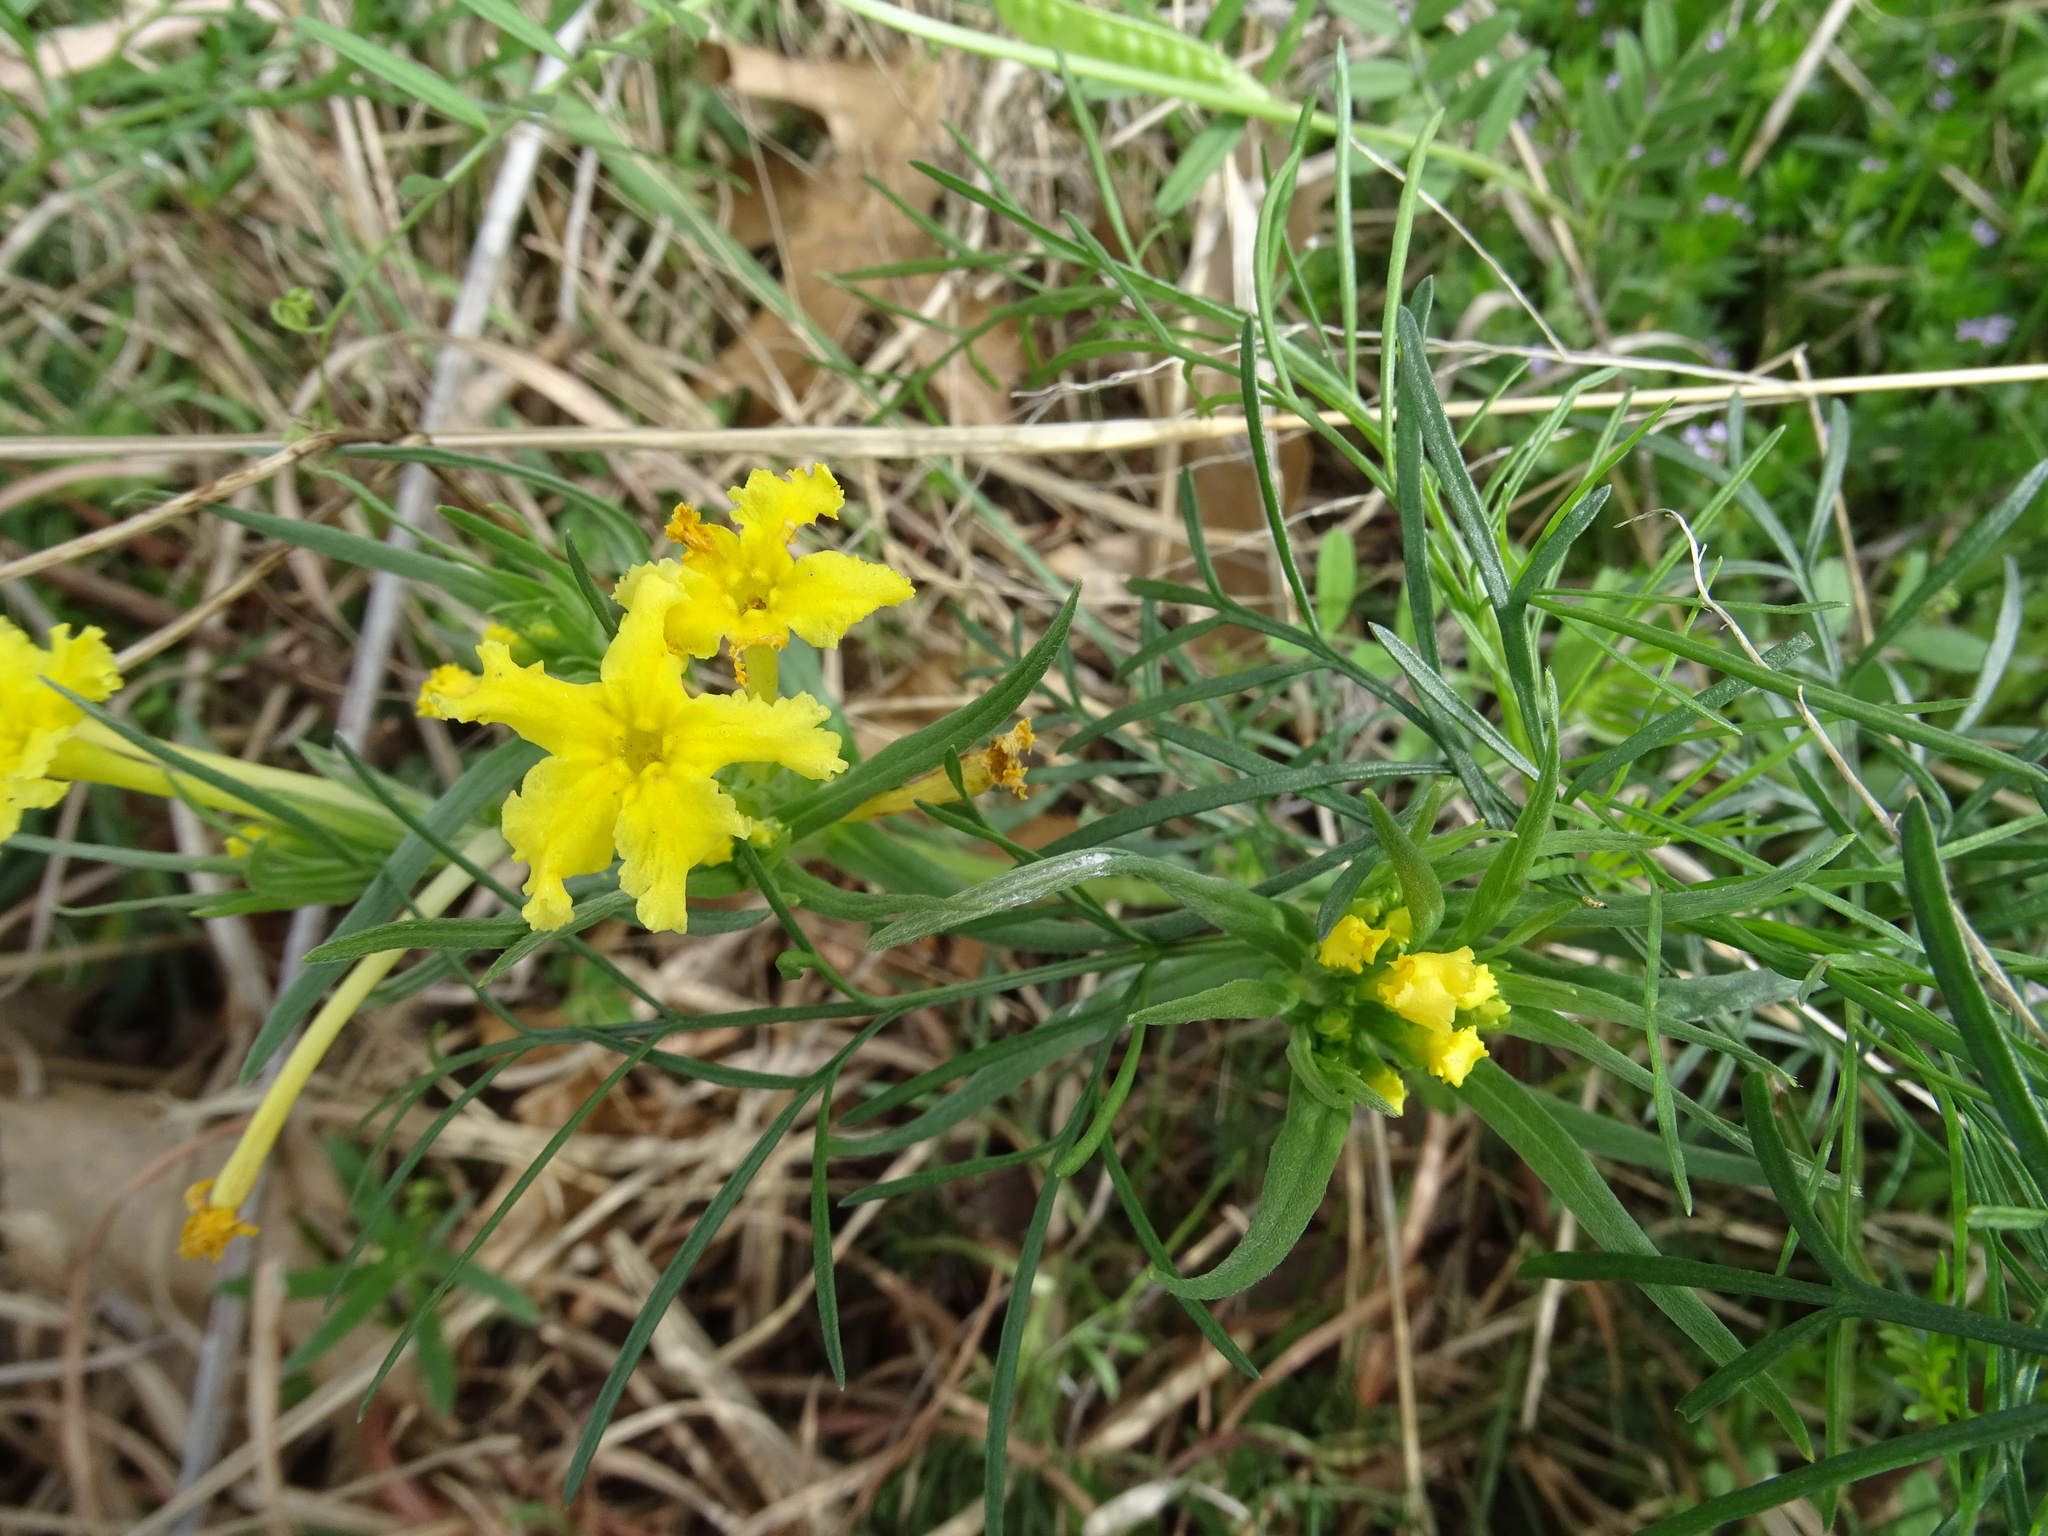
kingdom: Plantae
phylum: Tracheophyta
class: Magnoliopsida
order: Boraginales
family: Boraginaceae
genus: Lithospermum
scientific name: Lithospermum incisum
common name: Fringed gromwell
